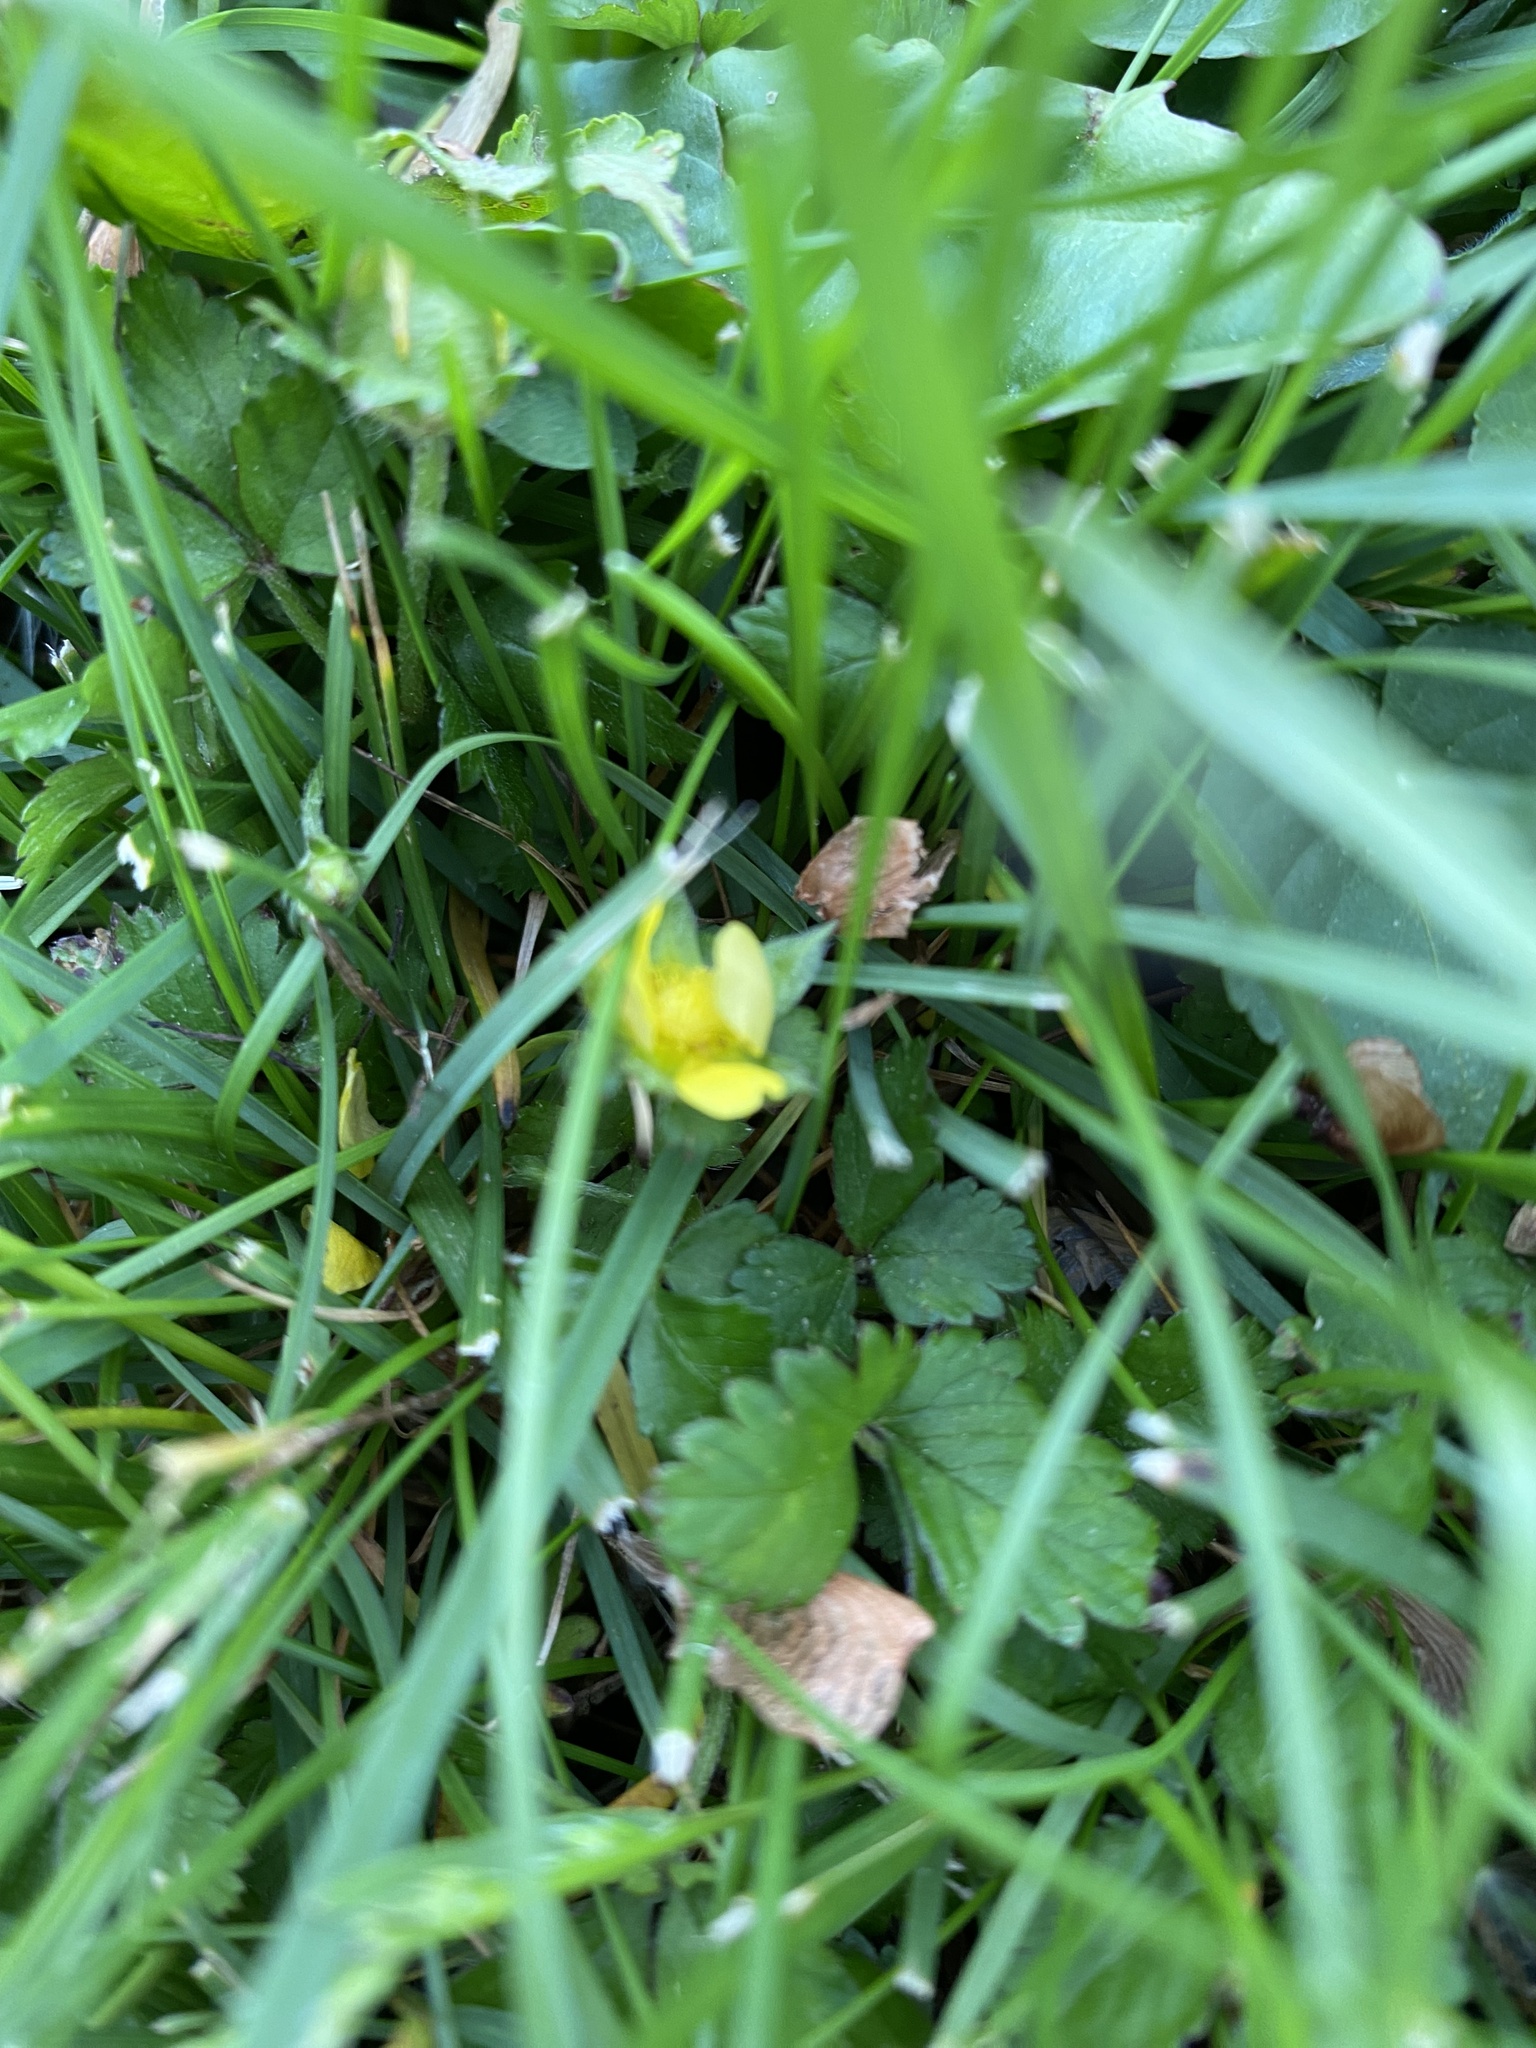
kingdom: Plantae
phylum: Tracheophyta
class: Magnoliopsida
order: Rosales
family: Rosaceae
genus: Potentilla
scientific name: Potentilla indica
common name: Yellow-flowered strawberry
